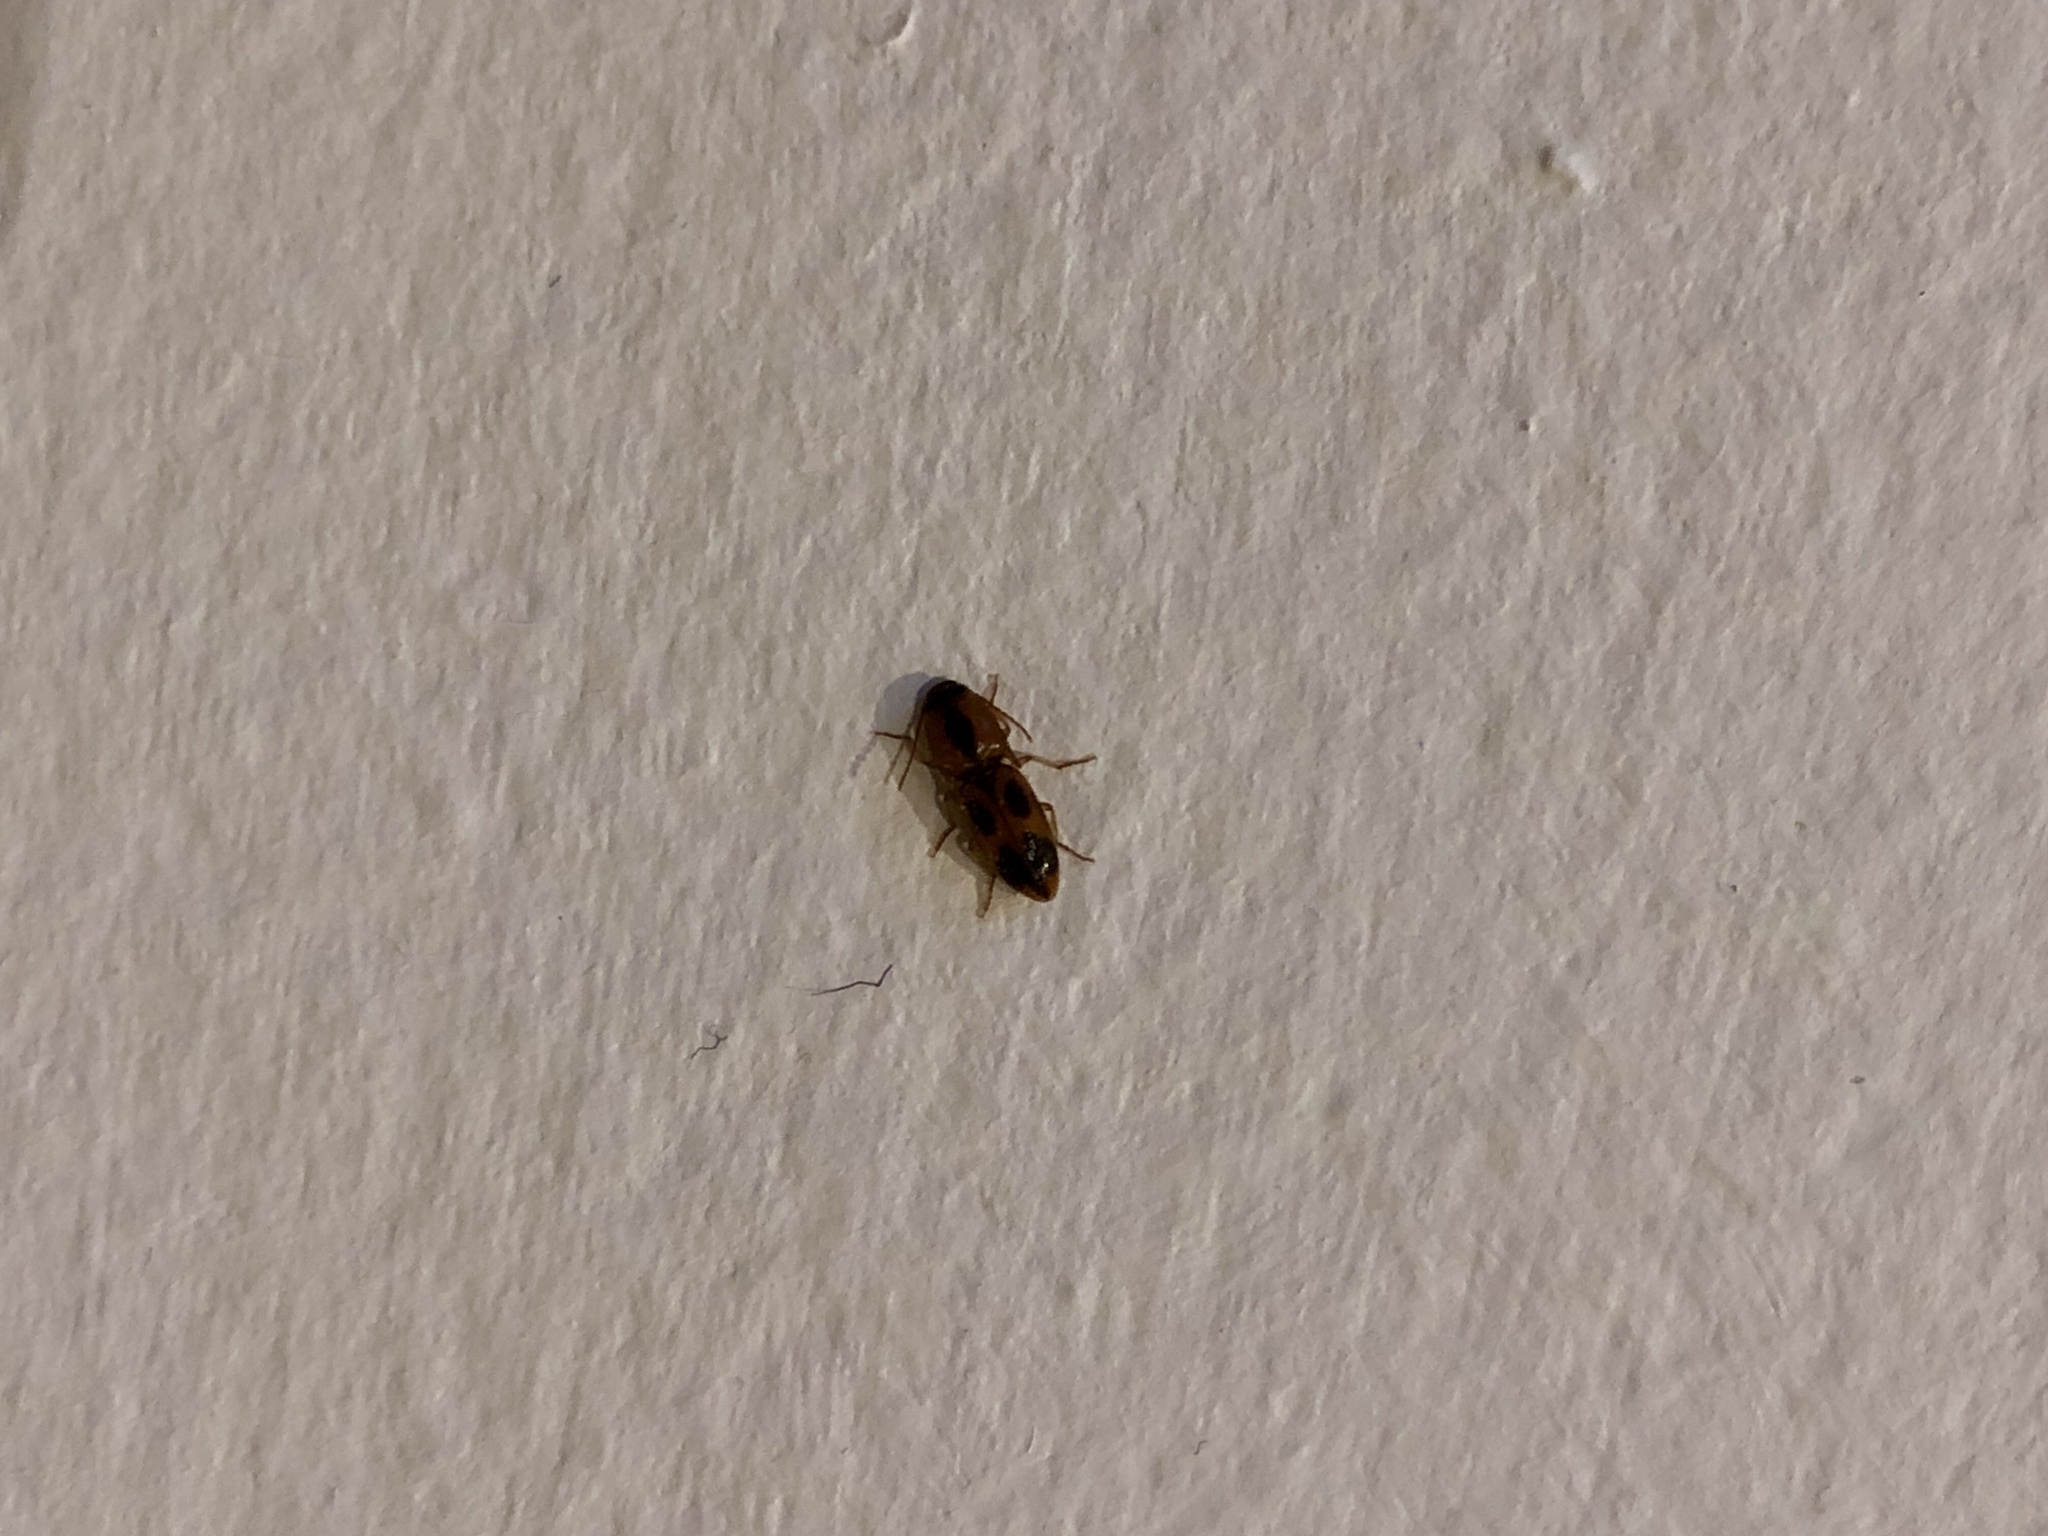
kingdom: Animalia
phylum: Arthropoda
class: Insecta
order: Coleoptera
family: Elateridae
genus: Aeolus
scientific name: Aeolus mellillus
